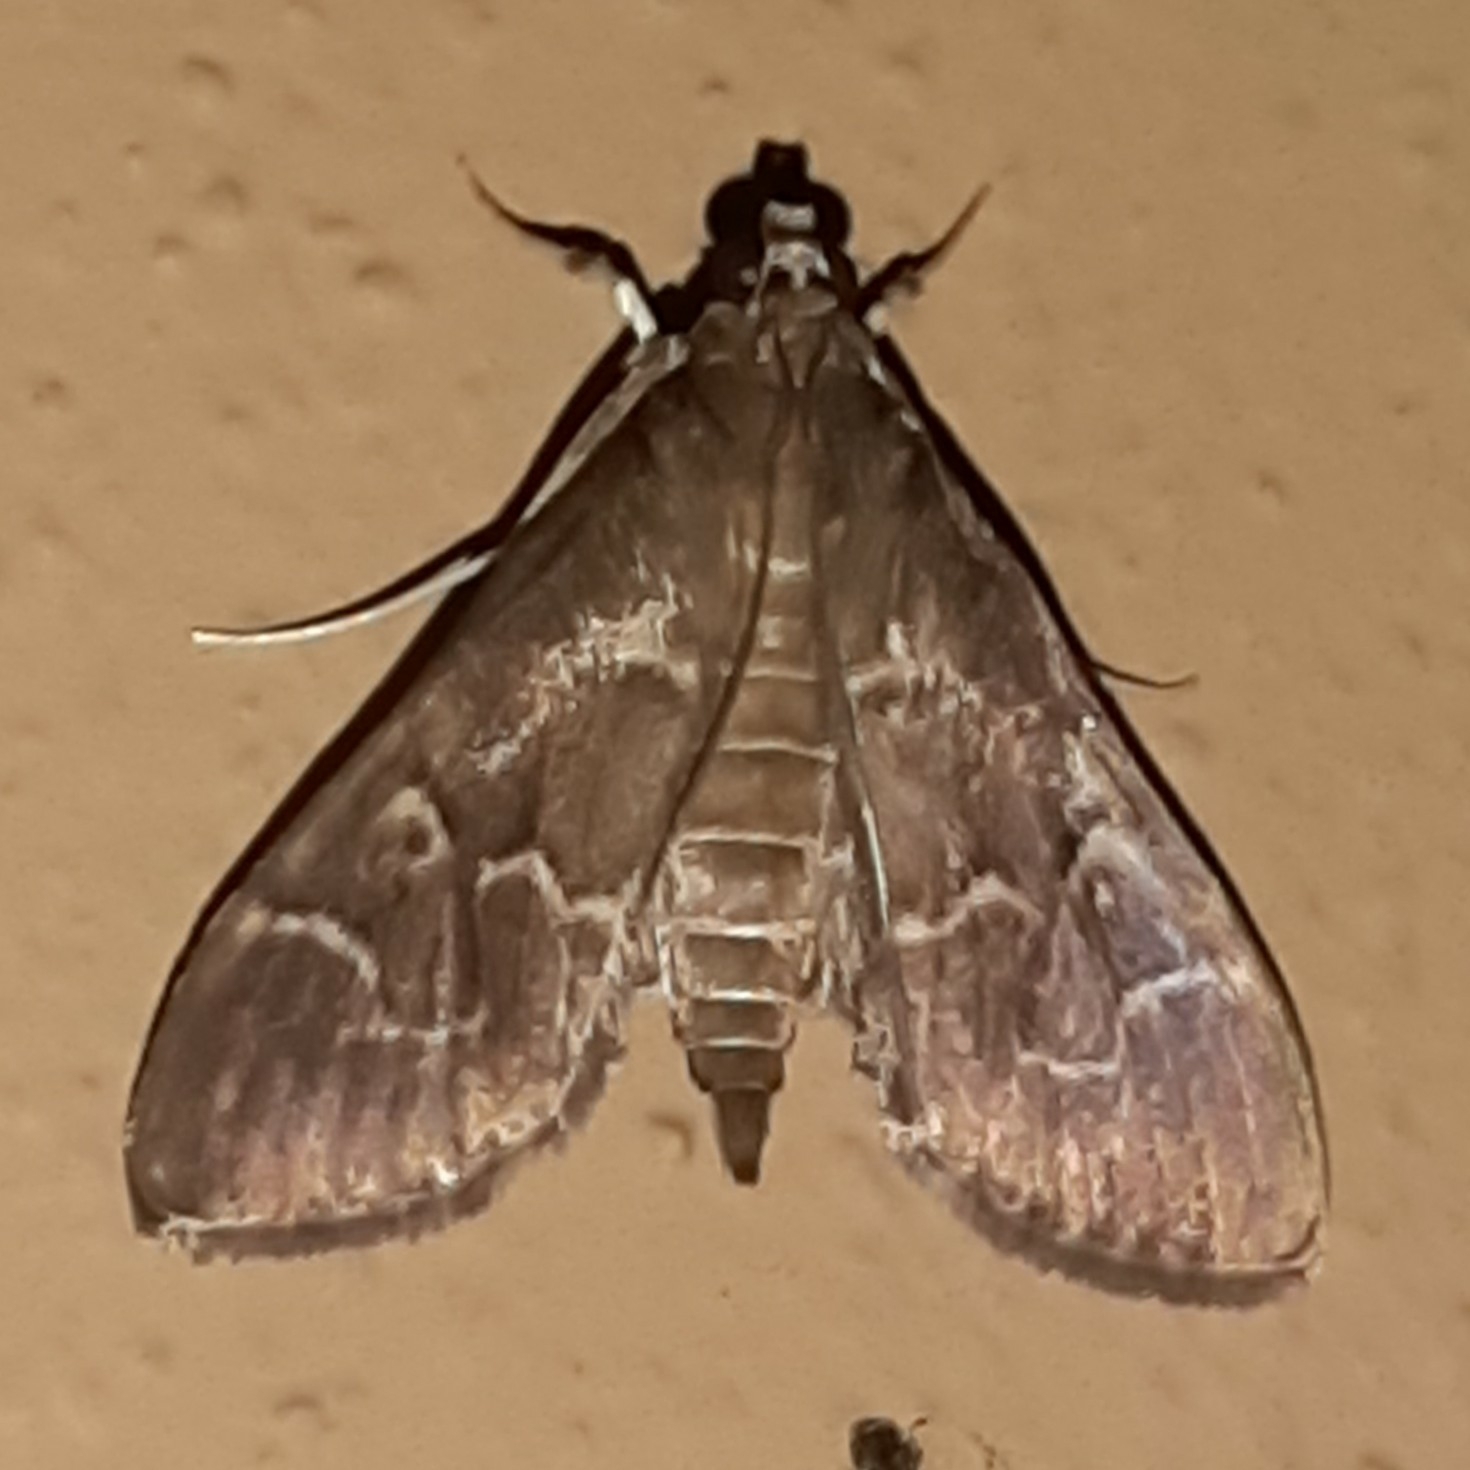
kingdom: Animalia
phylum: Arthropoda
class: Insecta
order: Lepidoptera
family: Crambidae
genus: Pilocrocis
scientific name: Pilocrocis ramentalis
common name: Scraped pilocrocis
